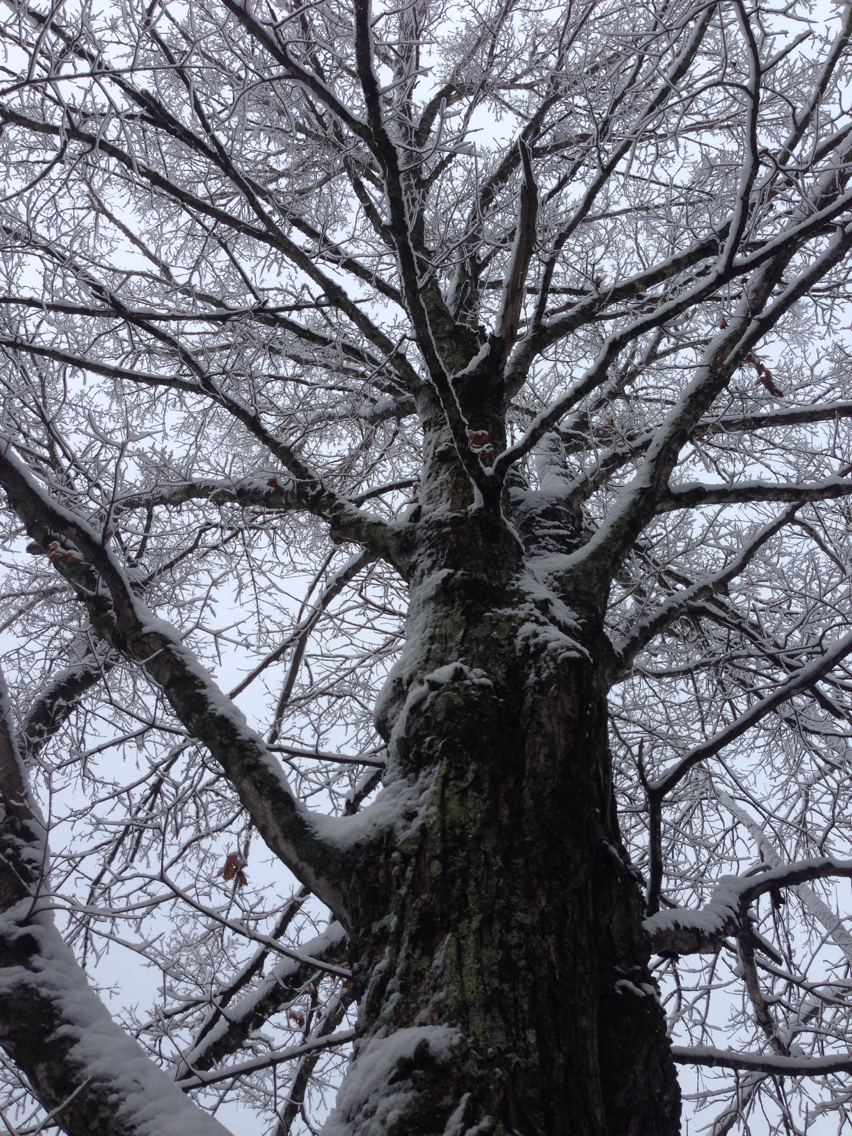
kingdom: Plantae
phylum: Tracheophyta
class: Magnoliopsida
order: Sapindales
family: Sapindaceae
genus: Acer
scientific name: Acer saccharum
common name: Sugar maple
